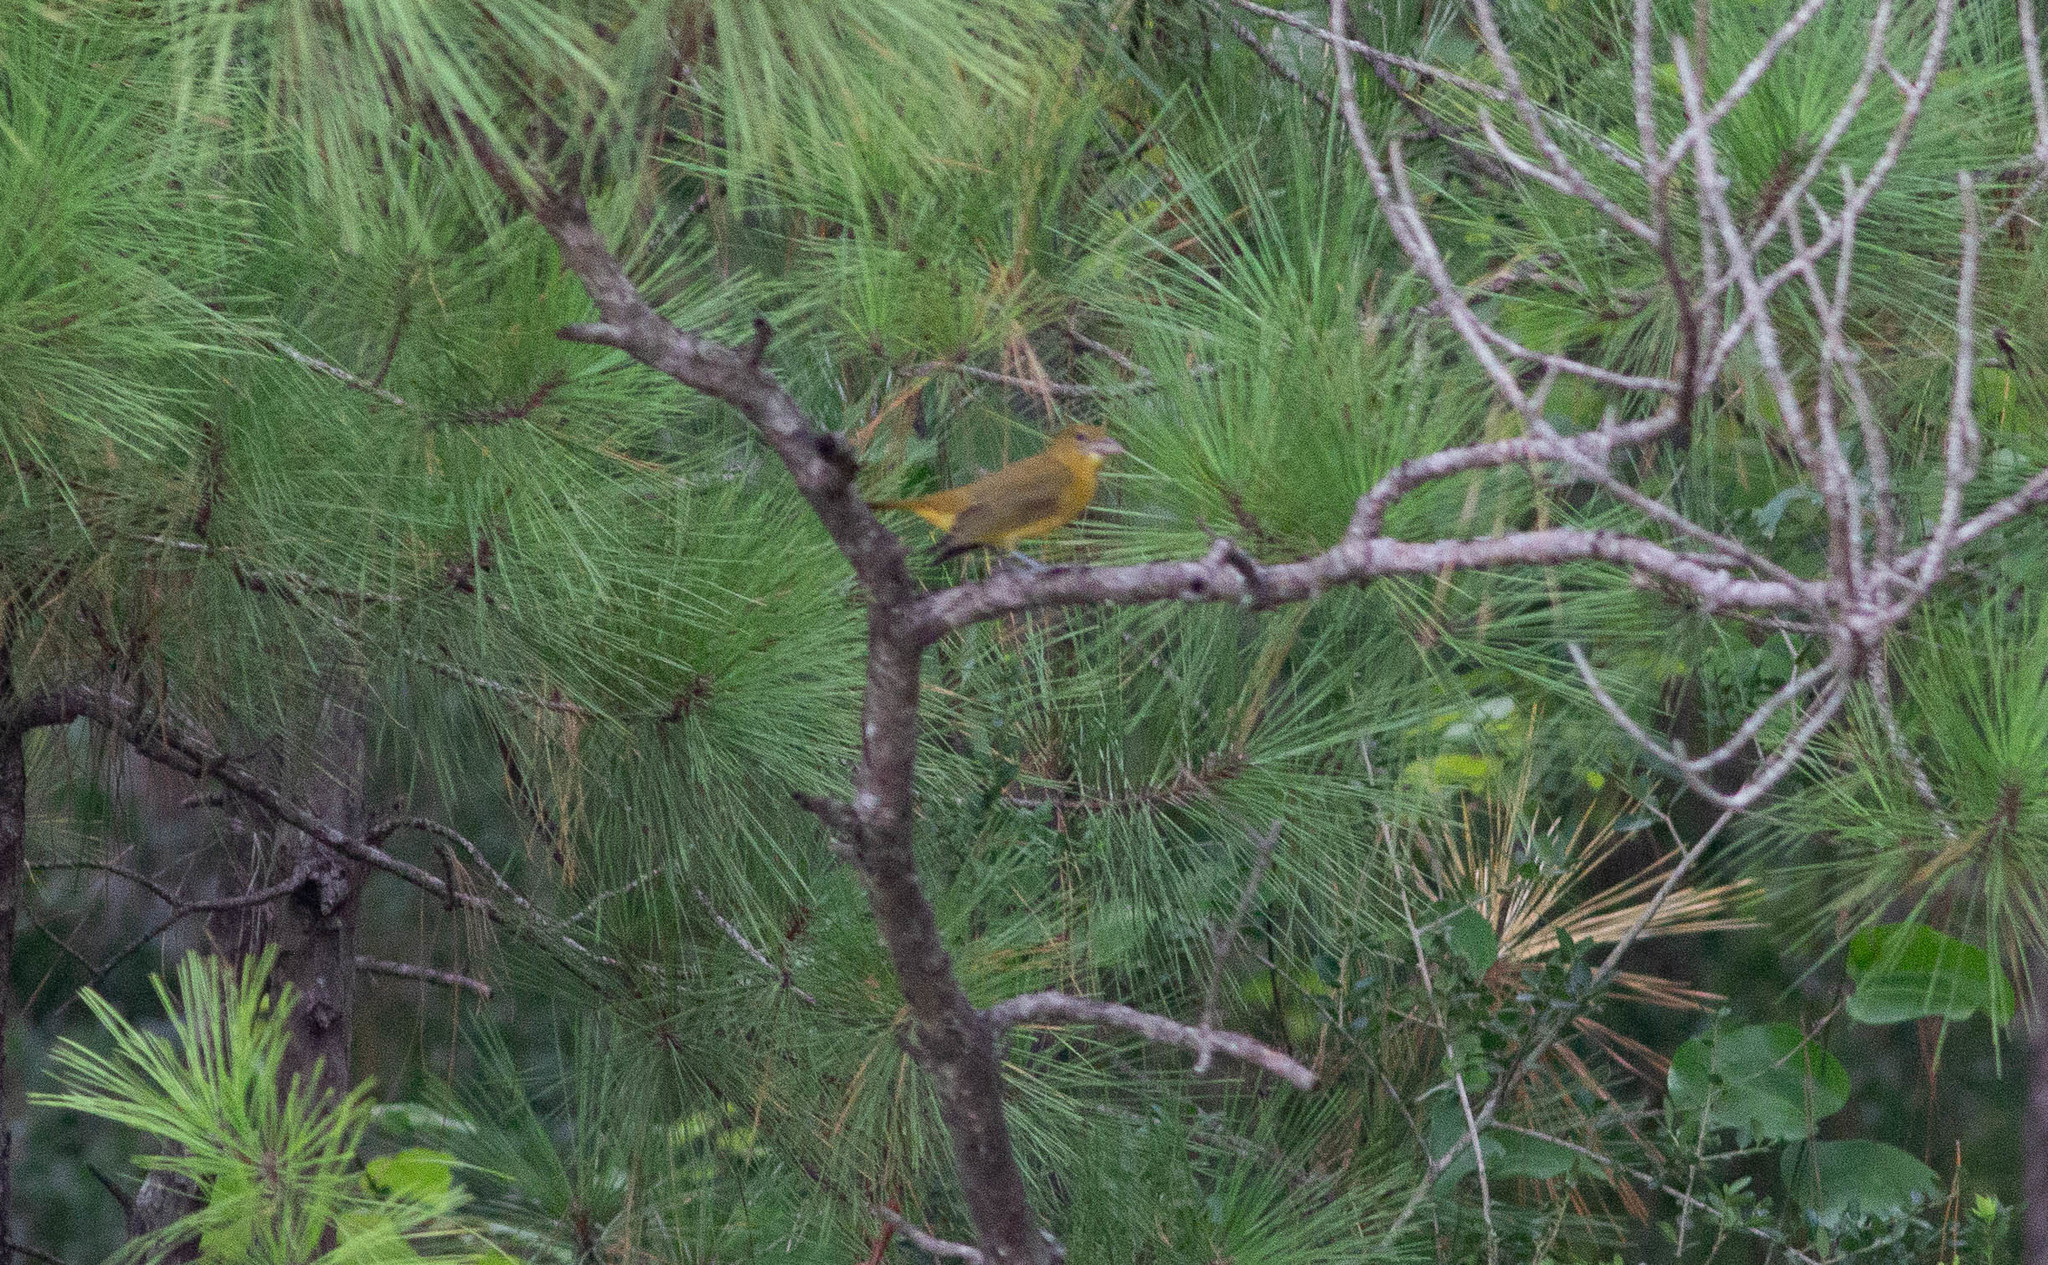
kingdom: Animalia
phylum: Chordata
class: Aves
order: Passeriformes
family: Cardinalidae
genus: Piranga
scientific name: Piranga rubra
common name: Summer tanager
